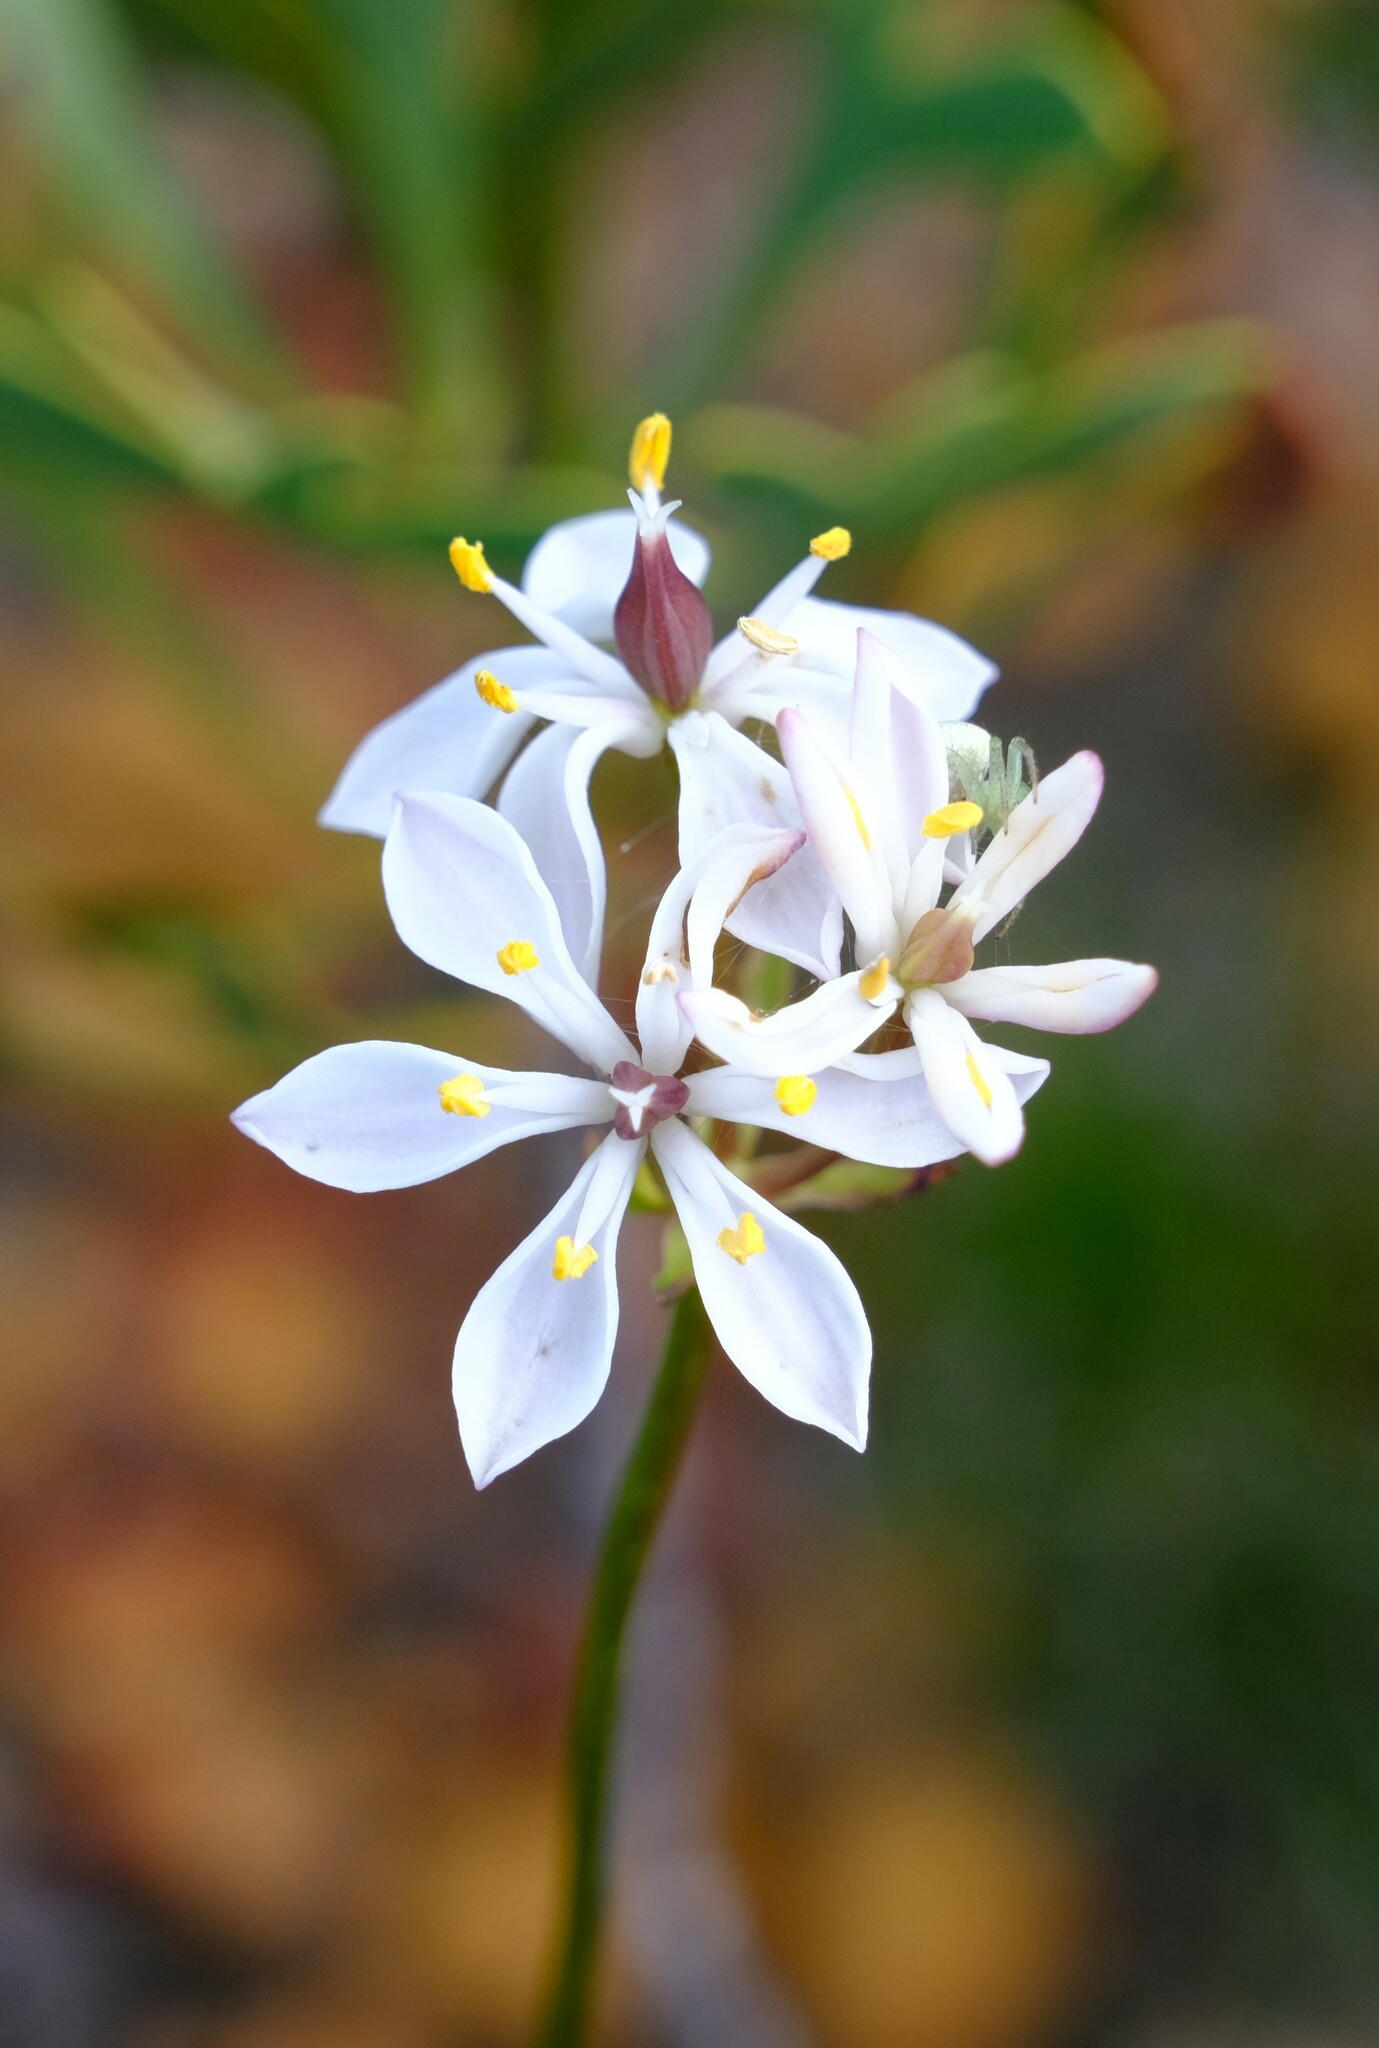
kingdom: Plantae
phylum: Tracheophyta
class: Liliopsida
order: Liliales
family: Colchicaceae
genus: Burchardia
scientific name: Burchardia congesta
